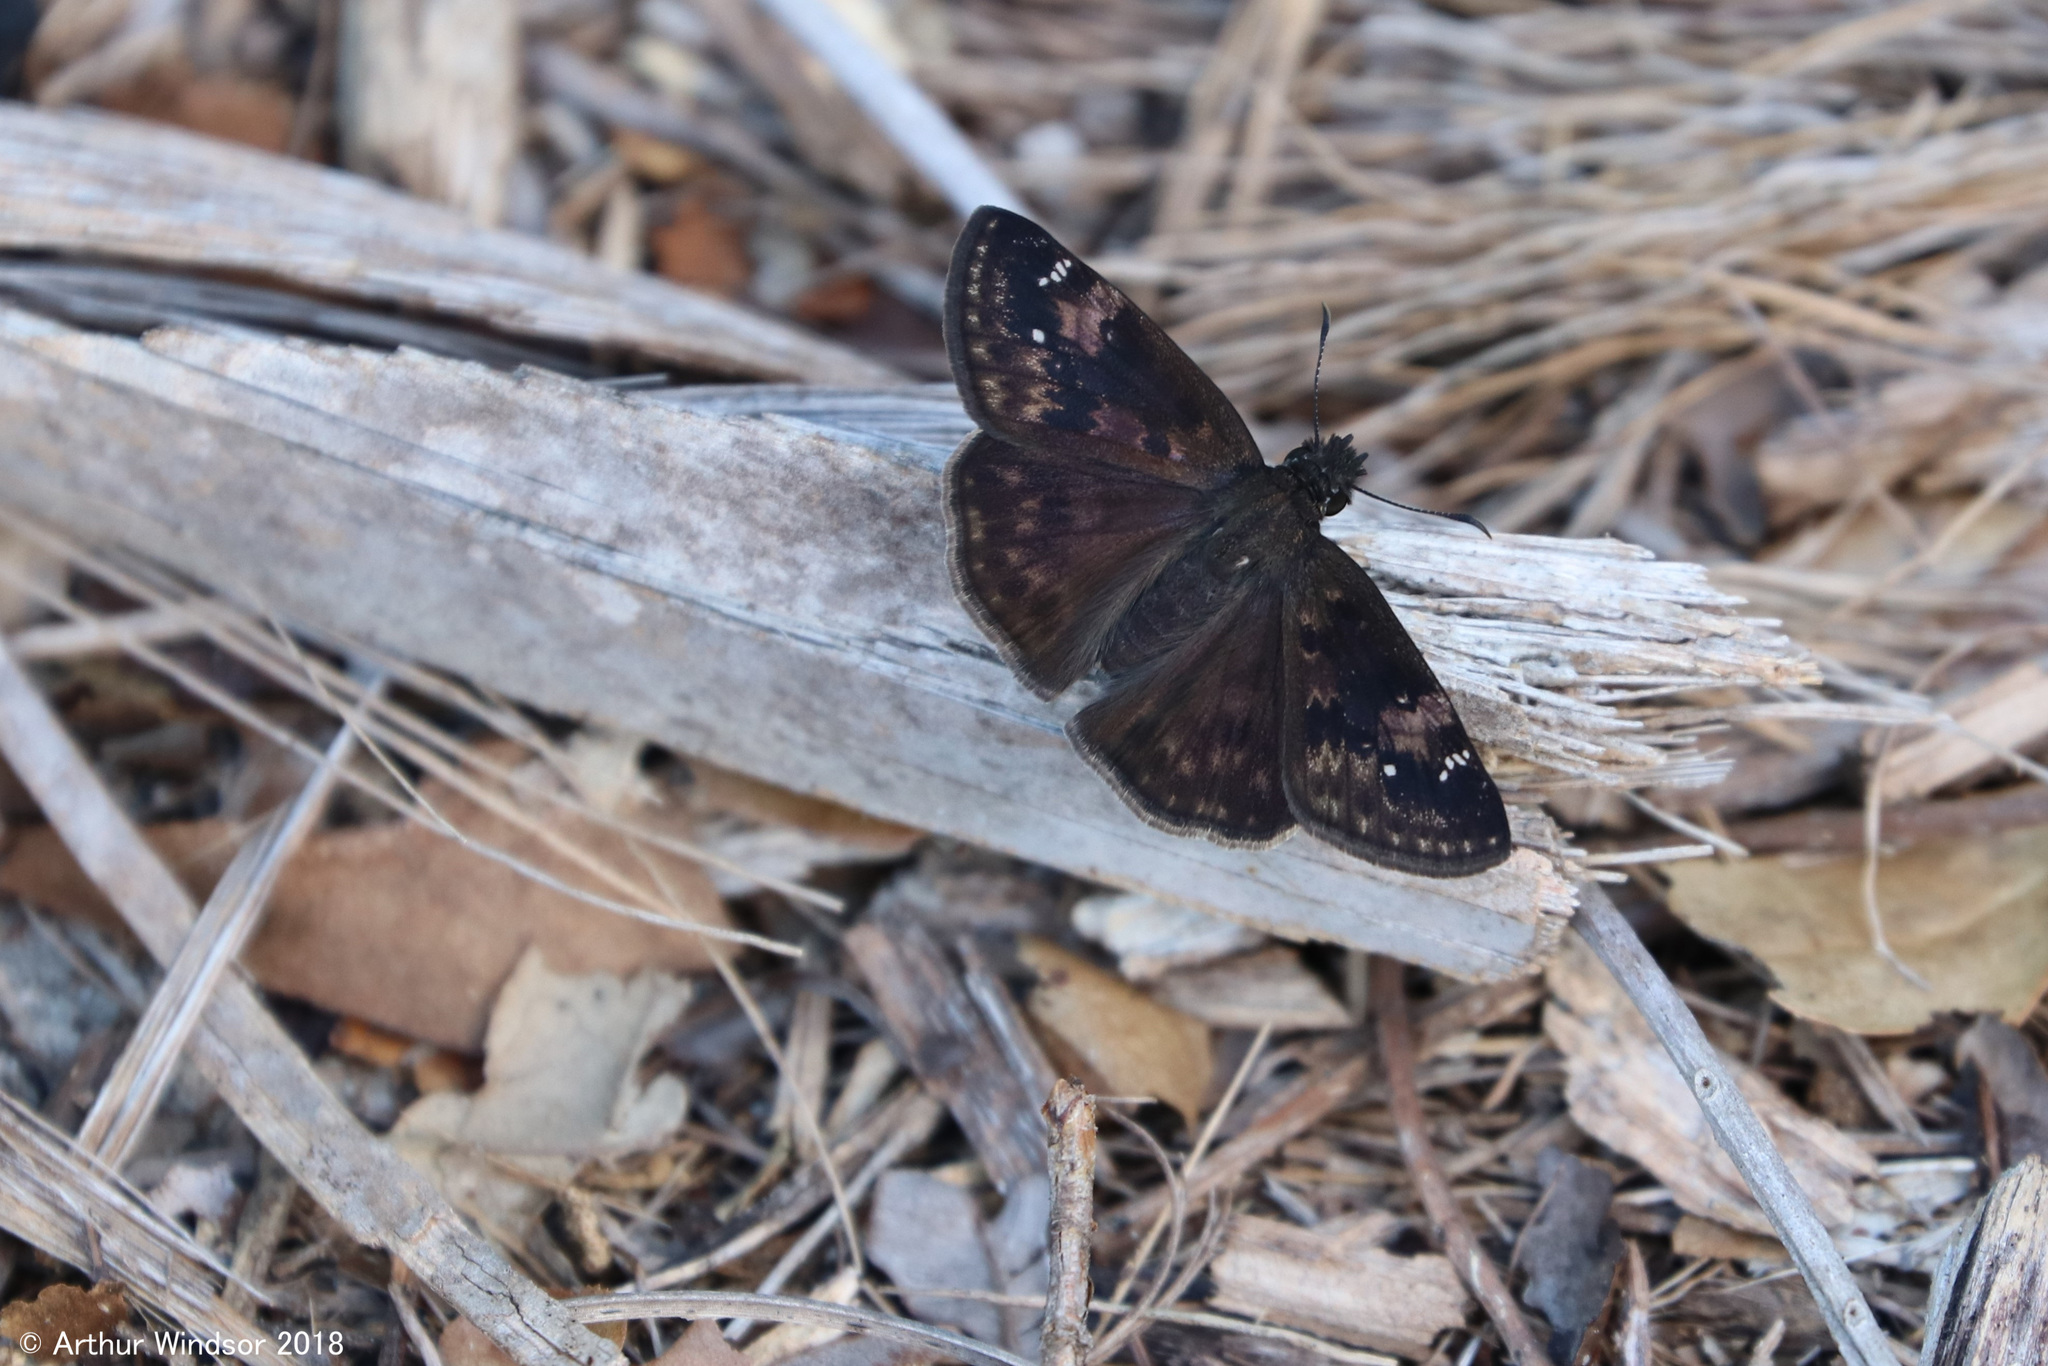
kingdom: Animalia
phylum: Arthropoda
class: Insecta
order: Lepidoptera
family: Hesperiidae
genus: Erynnis
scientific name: Erynnis zarucco
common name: Zarucco duskywing
